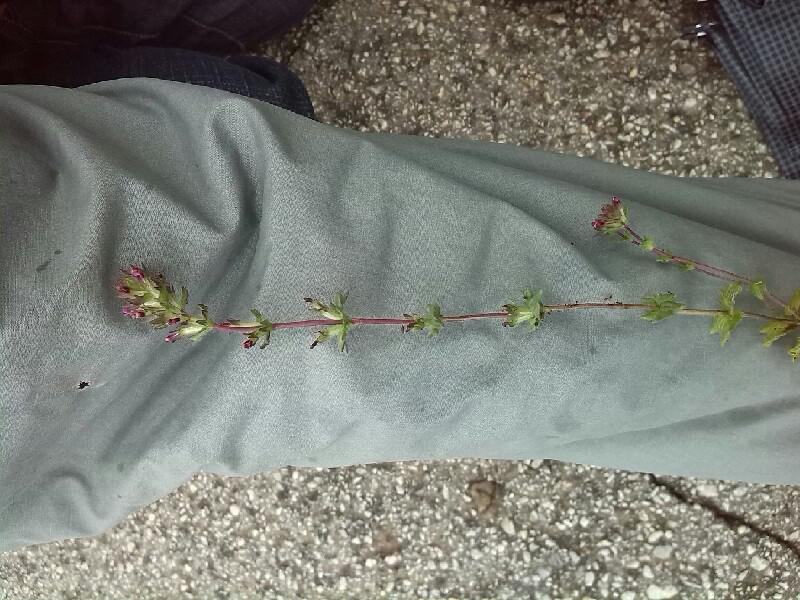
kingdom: Plantae
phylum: Tracheophyta
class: Magnoliopsida
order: Lamiales
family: Orobanchaceae
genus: Parentucellia
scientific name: Parentucellia latifolia
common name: Broadleaf glandweed
